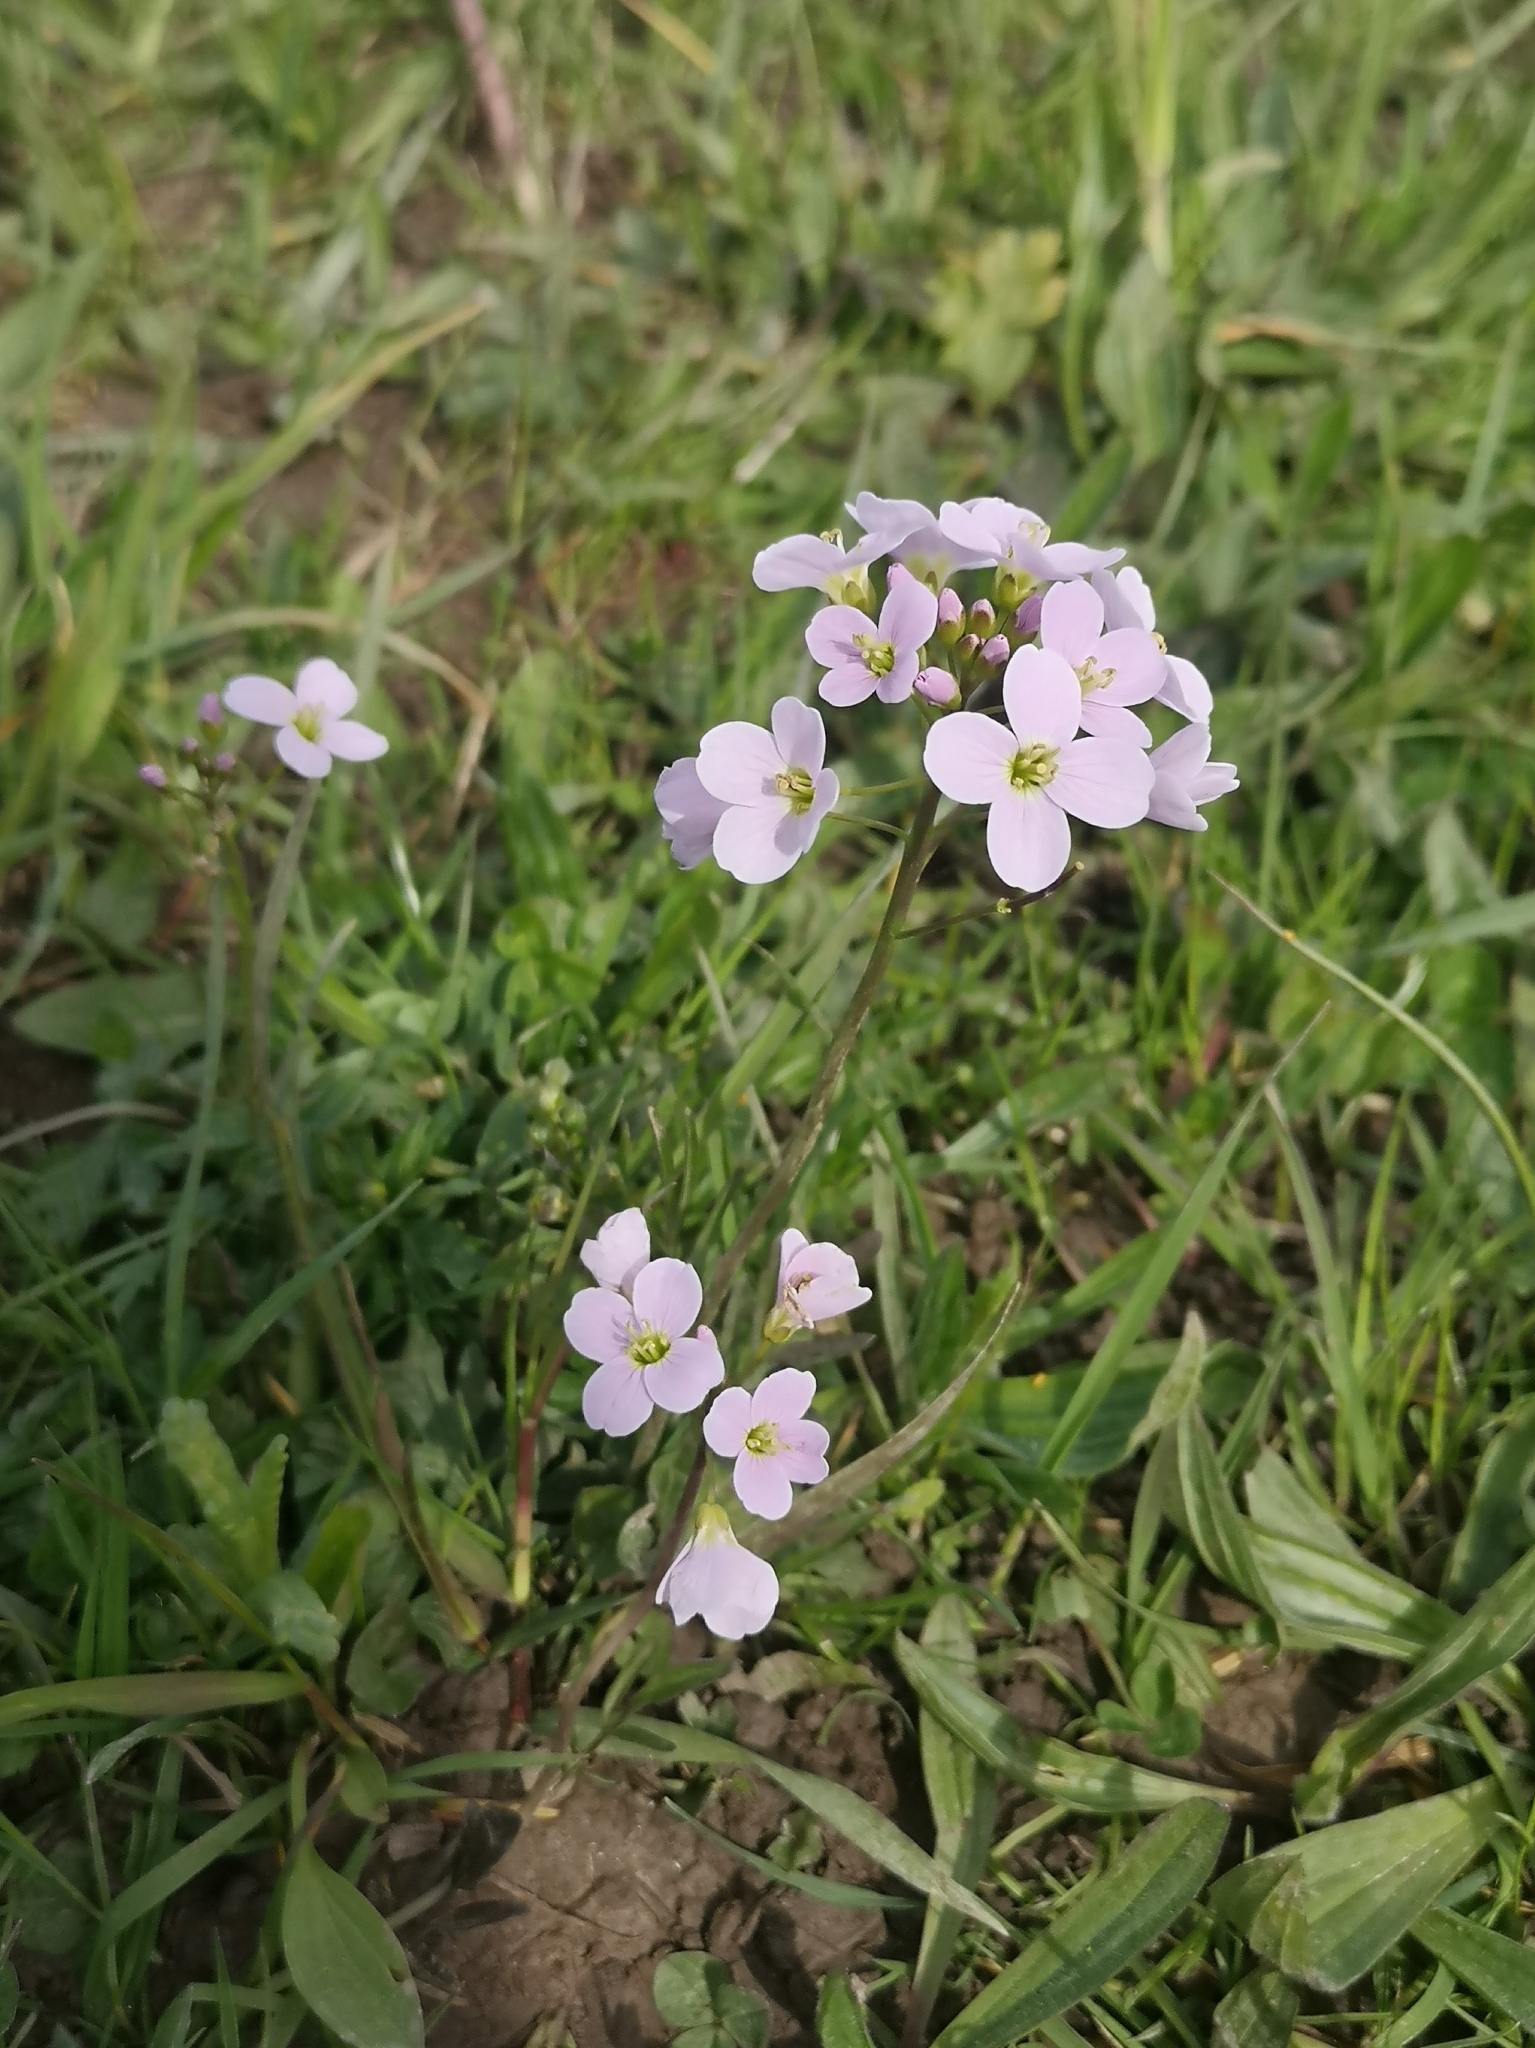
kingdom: Plantae
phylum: Tracheophyta
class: Magnoliopsida
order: Brassicales
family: Brassicaceae
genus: Cardamine
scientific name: Cardamine pratensis
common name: Cuckoo flower
